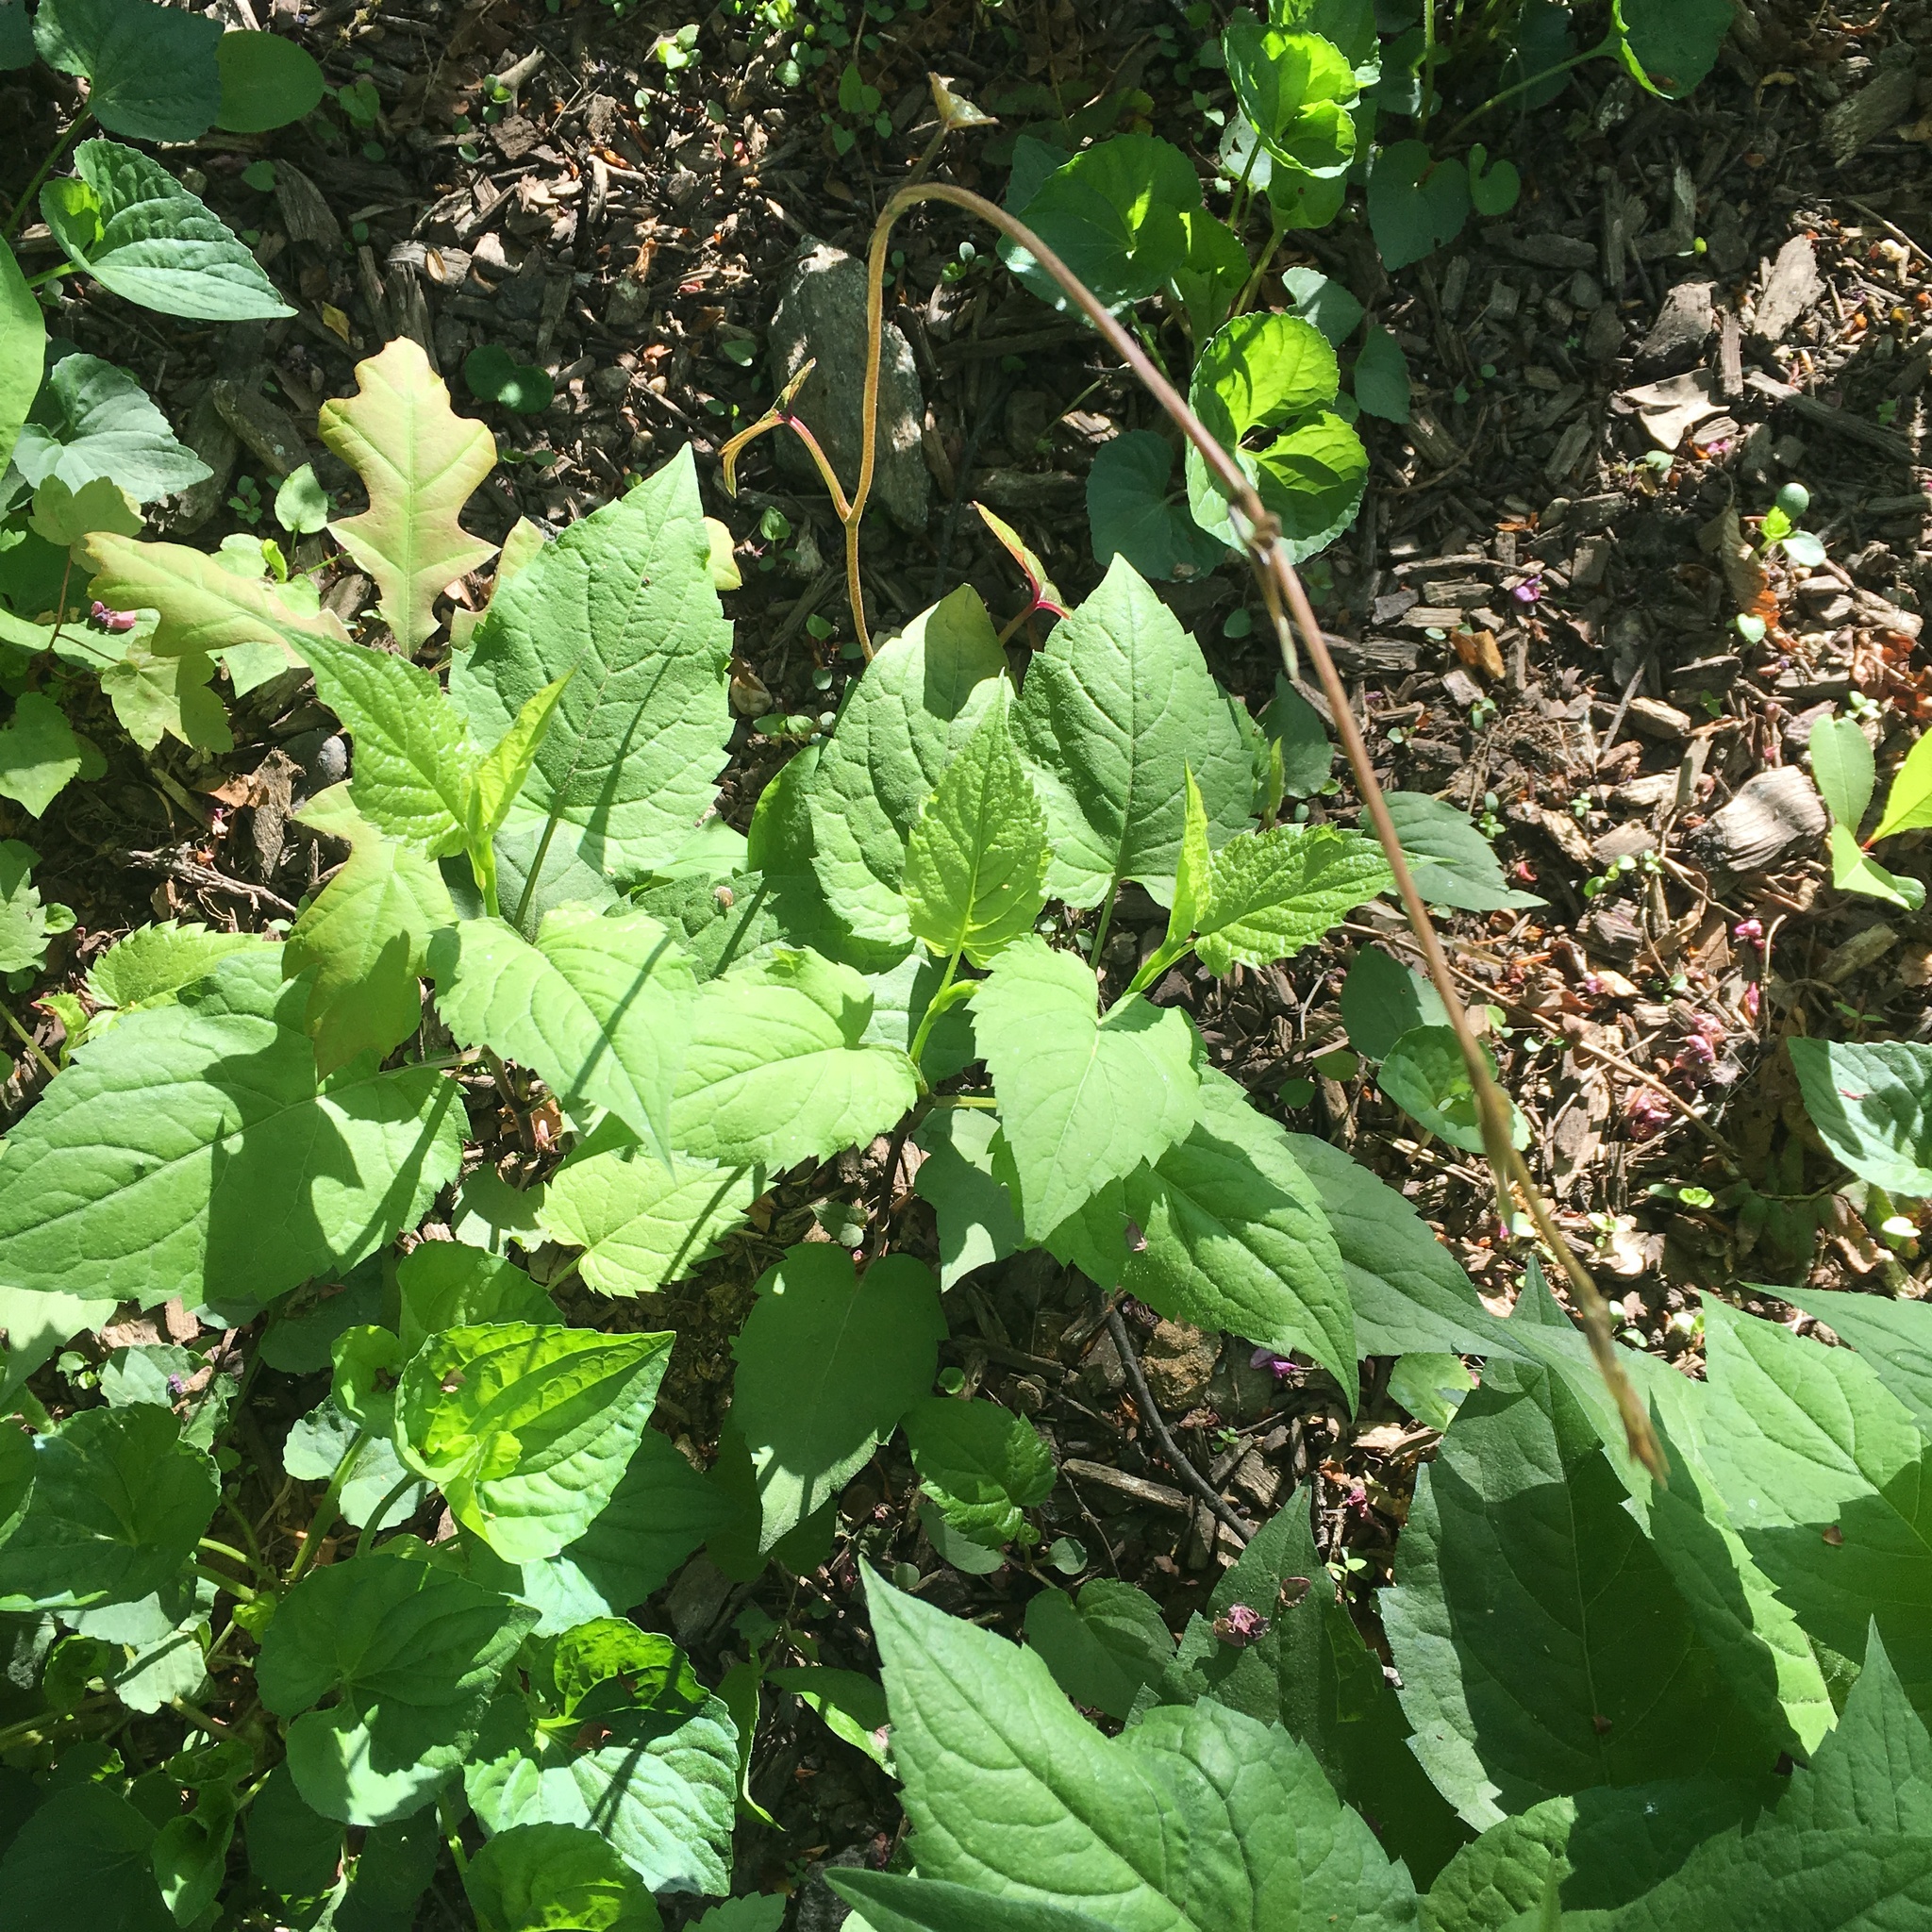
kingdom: Plantae
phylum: Tracheophyta
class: Liliopsida
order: Dioscoreales
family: Dioscoreaceae
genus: Dioscorea
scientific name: Dioscorea polystachya
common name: Chinese yam
